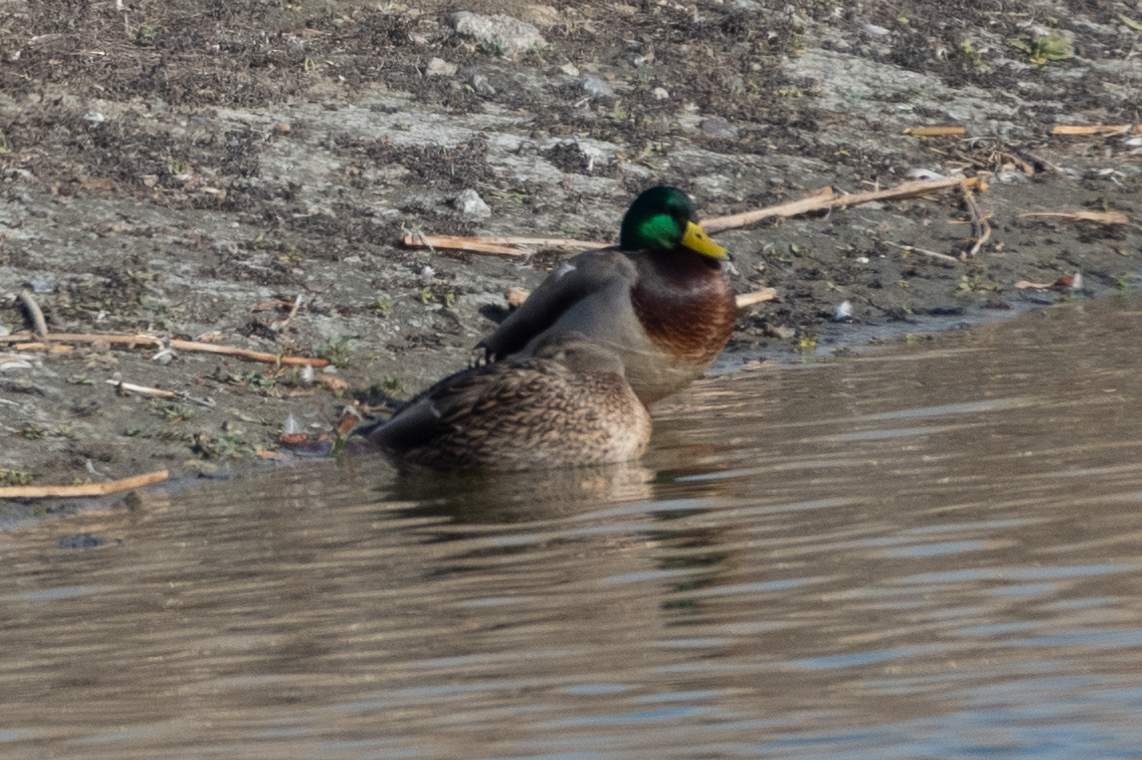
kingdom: Animalia
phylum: Chordata
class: Aves
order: Anseriformes
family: Anatidae
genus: Anas
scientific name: Anas platyrhynchos
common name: Mallard
